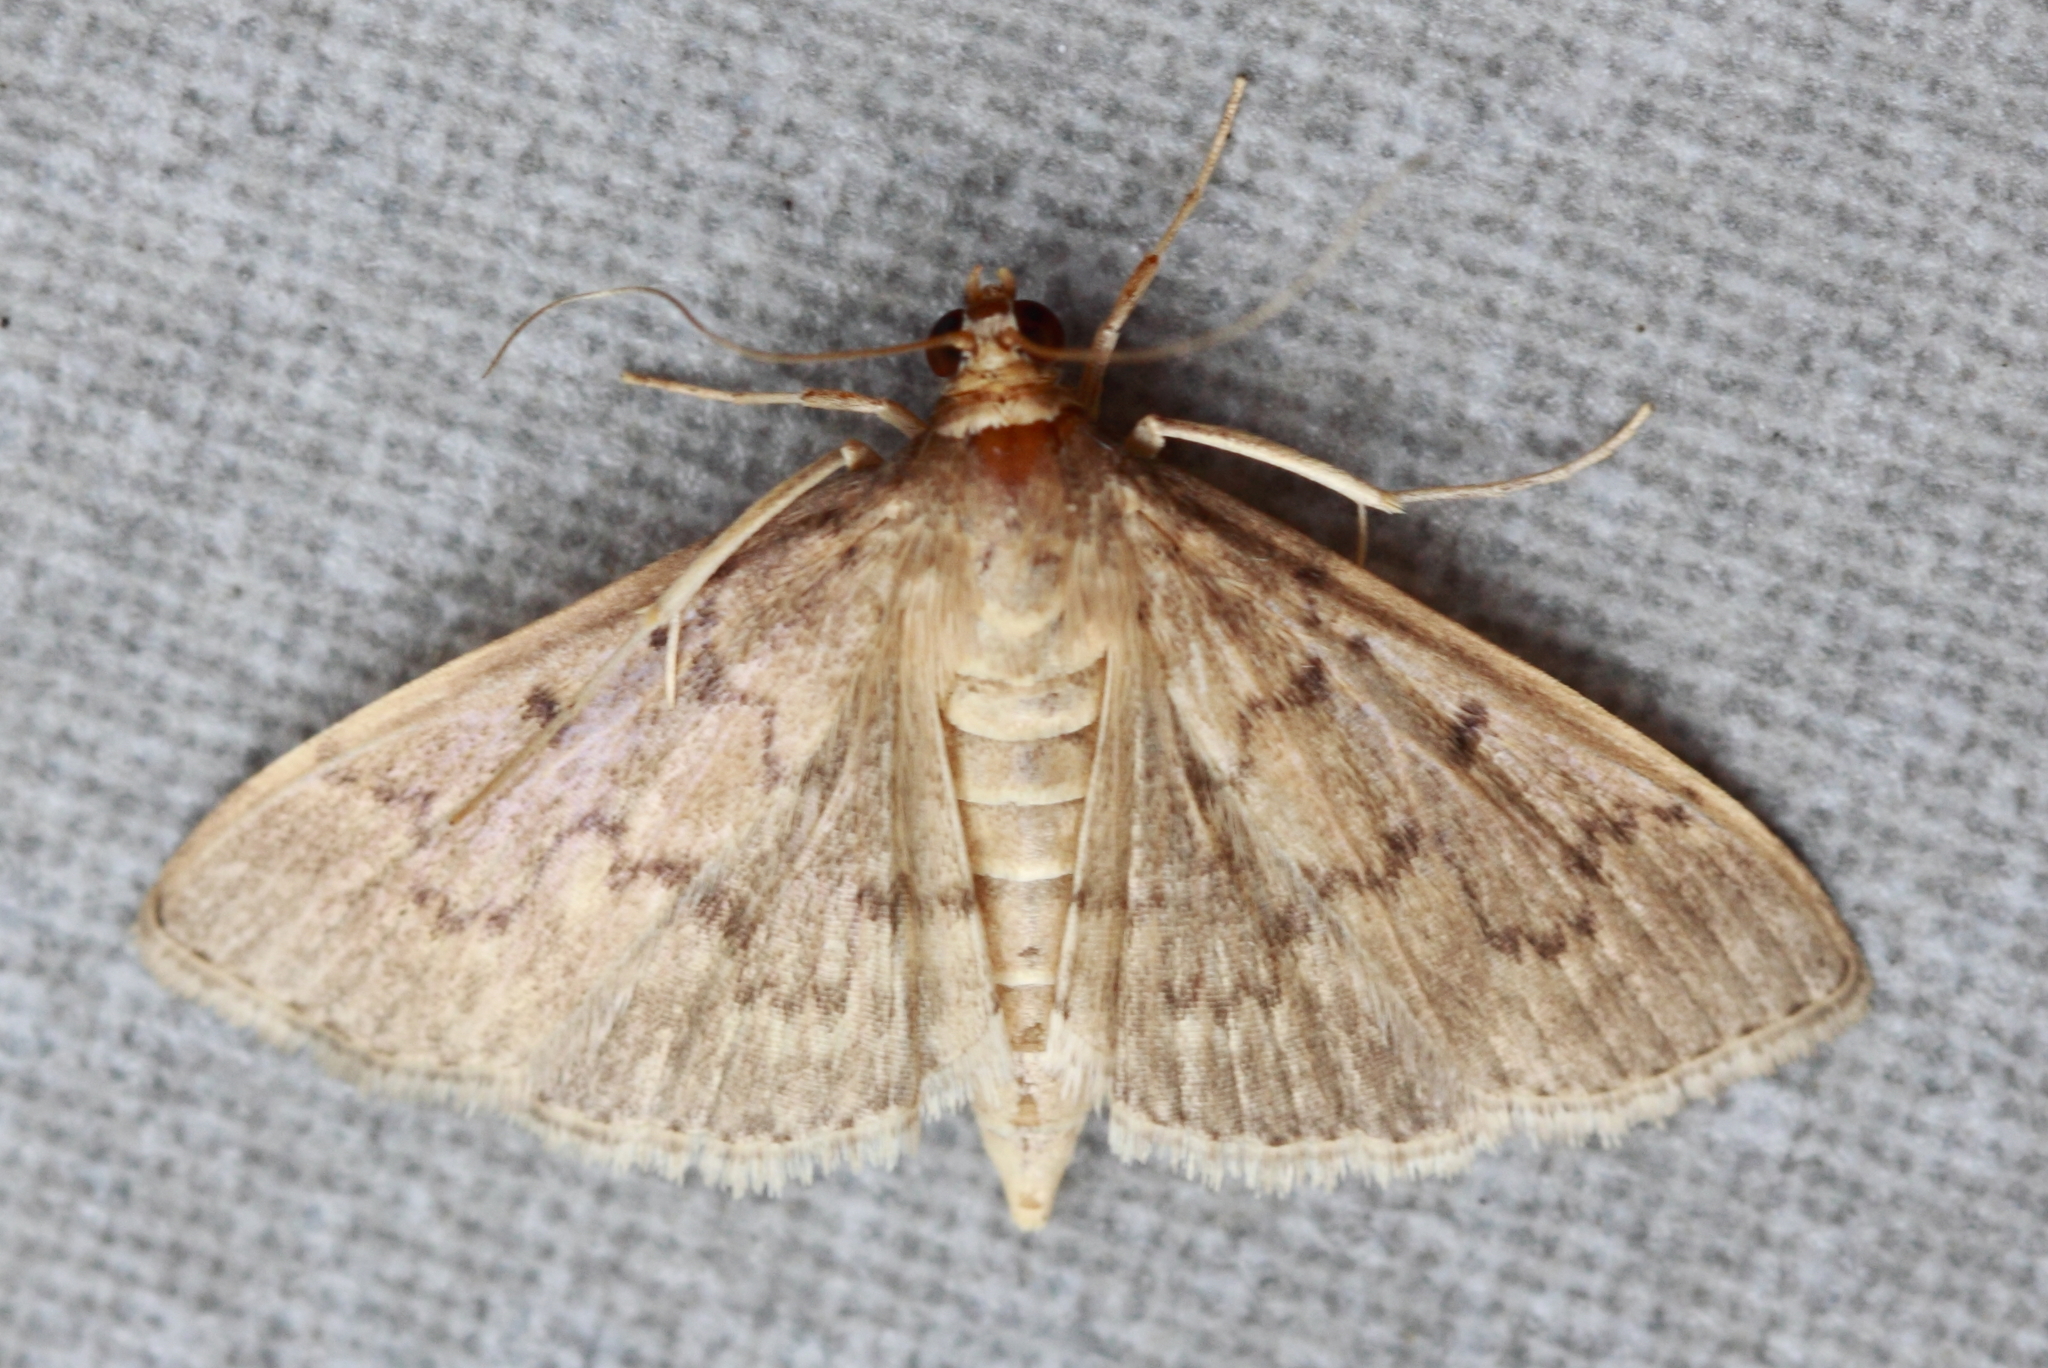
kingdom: Animalia
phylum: Arthropoda
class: Insecta
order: Lepidoptera
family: Crambidae
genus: Herpetogramma
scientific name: Herpetogramma licarsisalis
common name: Grass webworm
